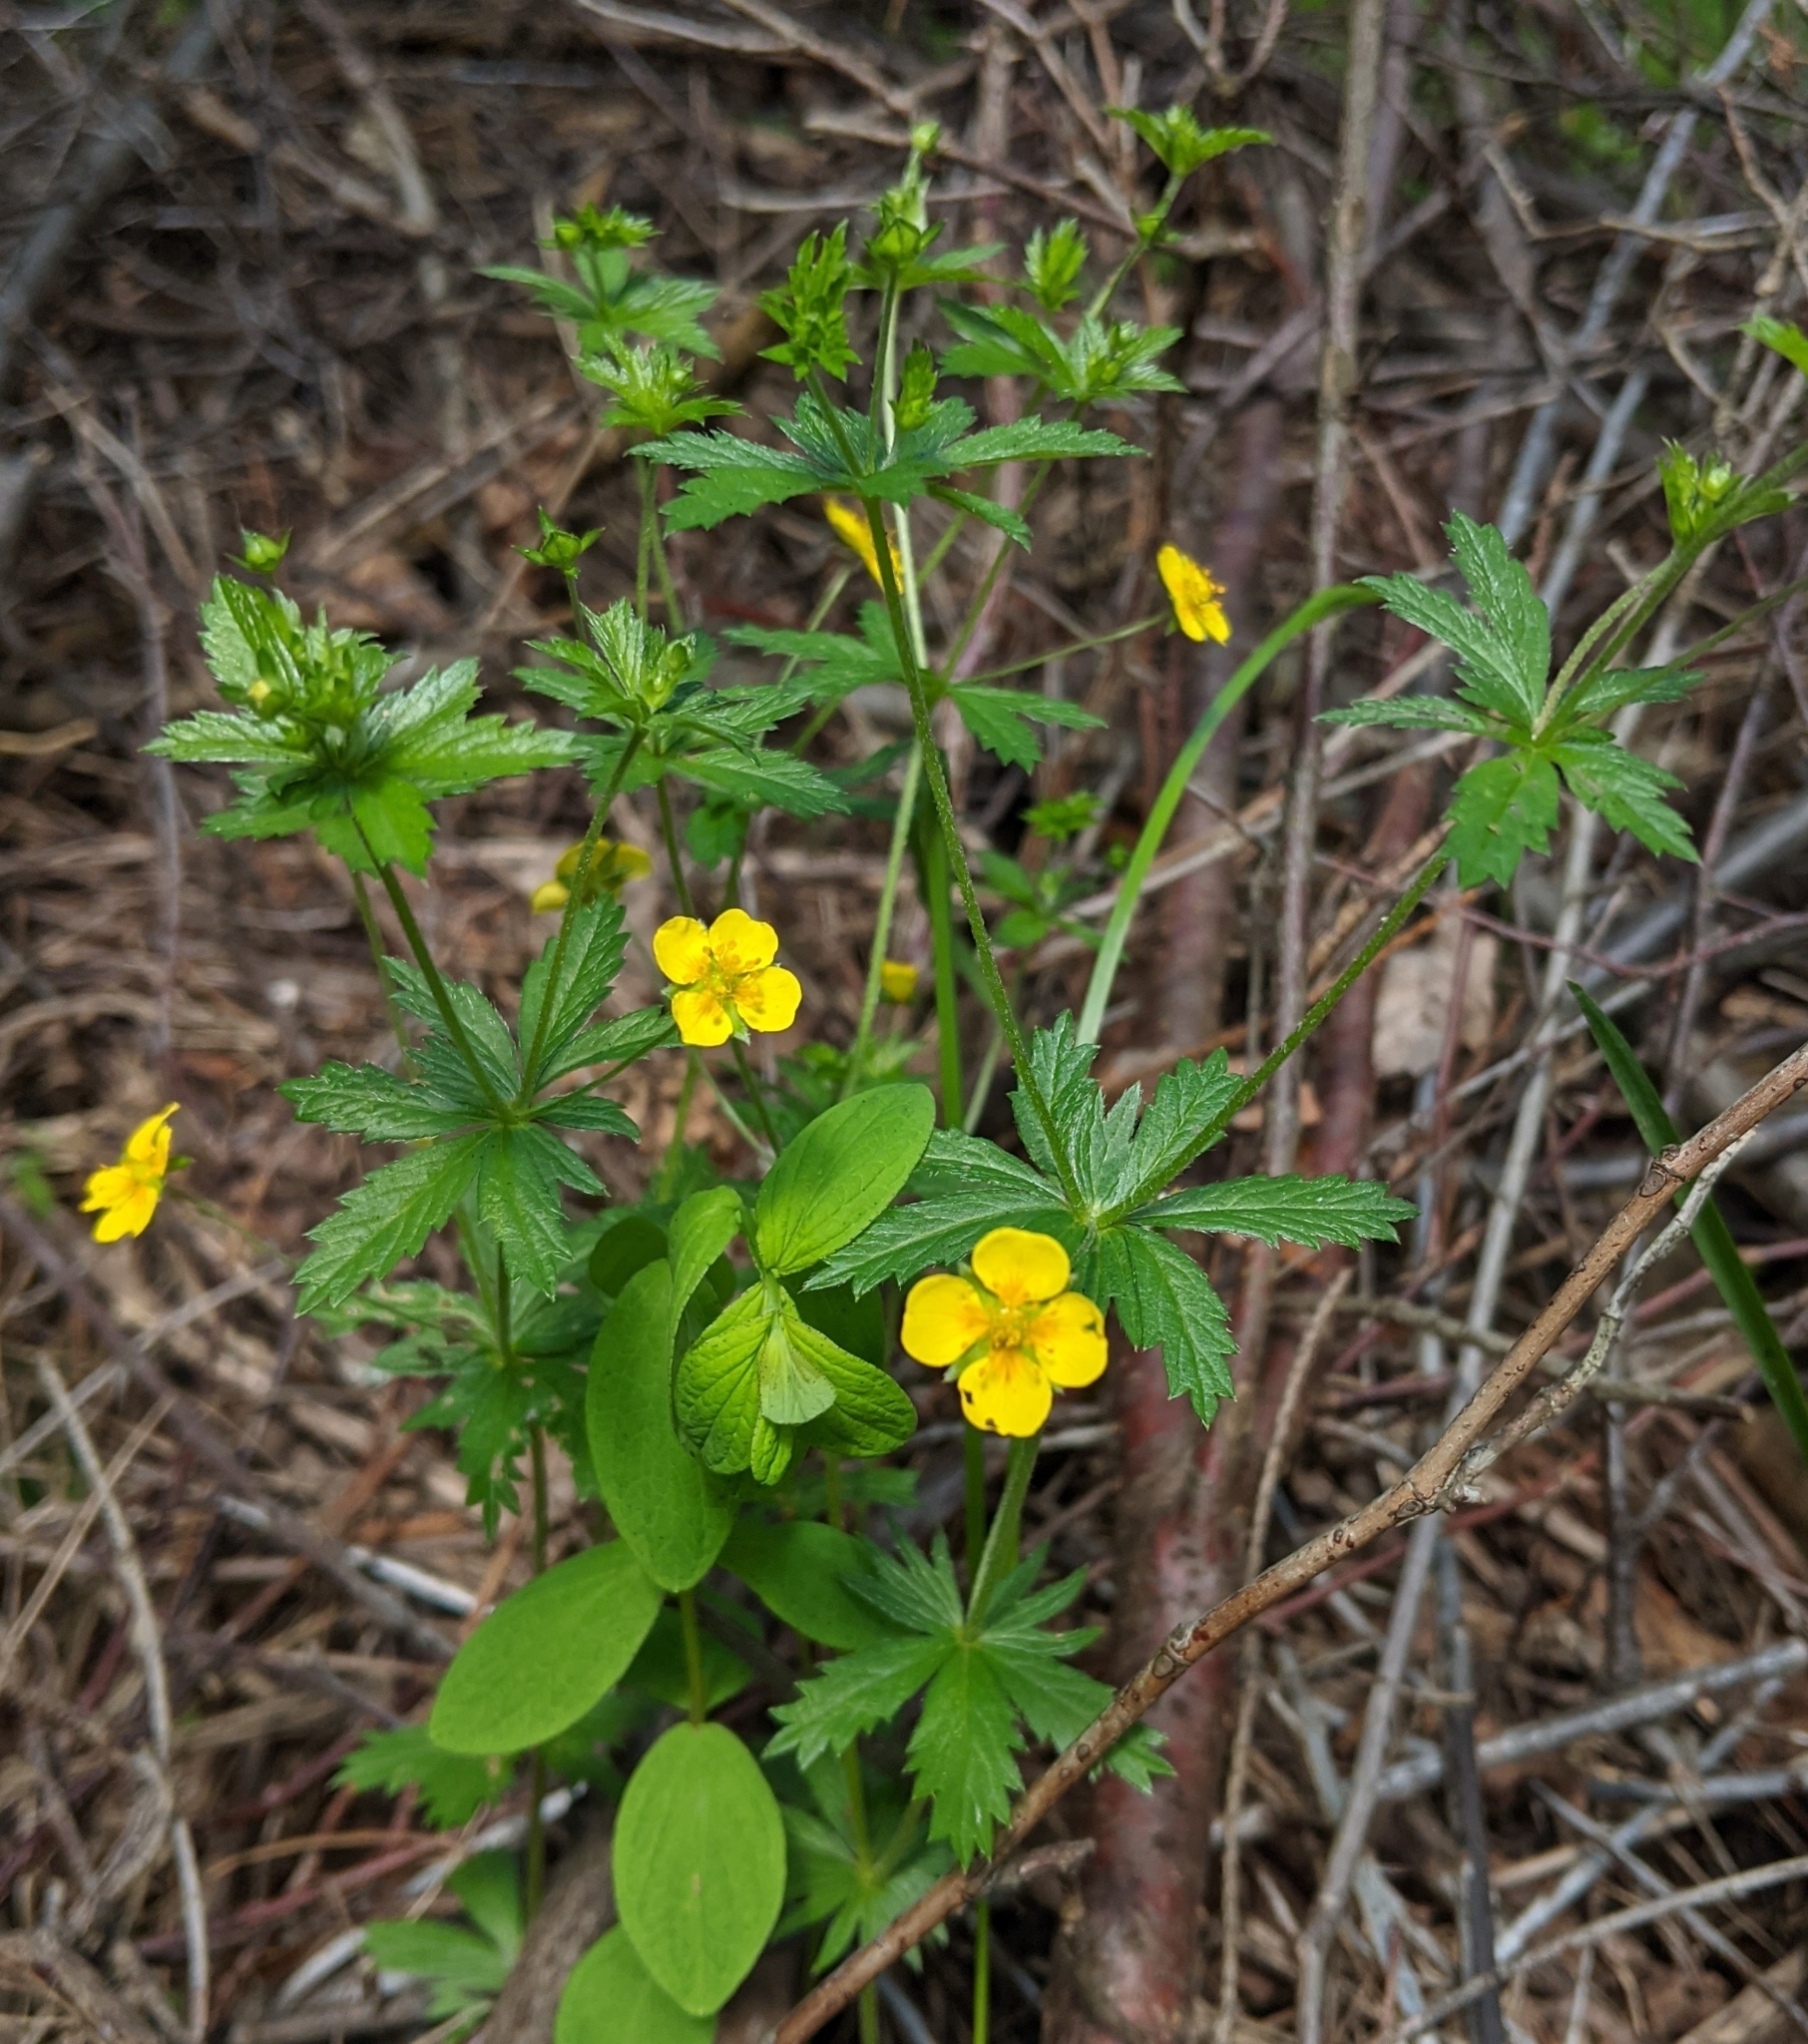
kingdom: Plantae
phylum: Tracheophyta
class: Magnoliopsida
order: Rosales
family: Rosaceae
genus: Potentilla
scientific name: Potentilla erecta
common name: Tormentil
